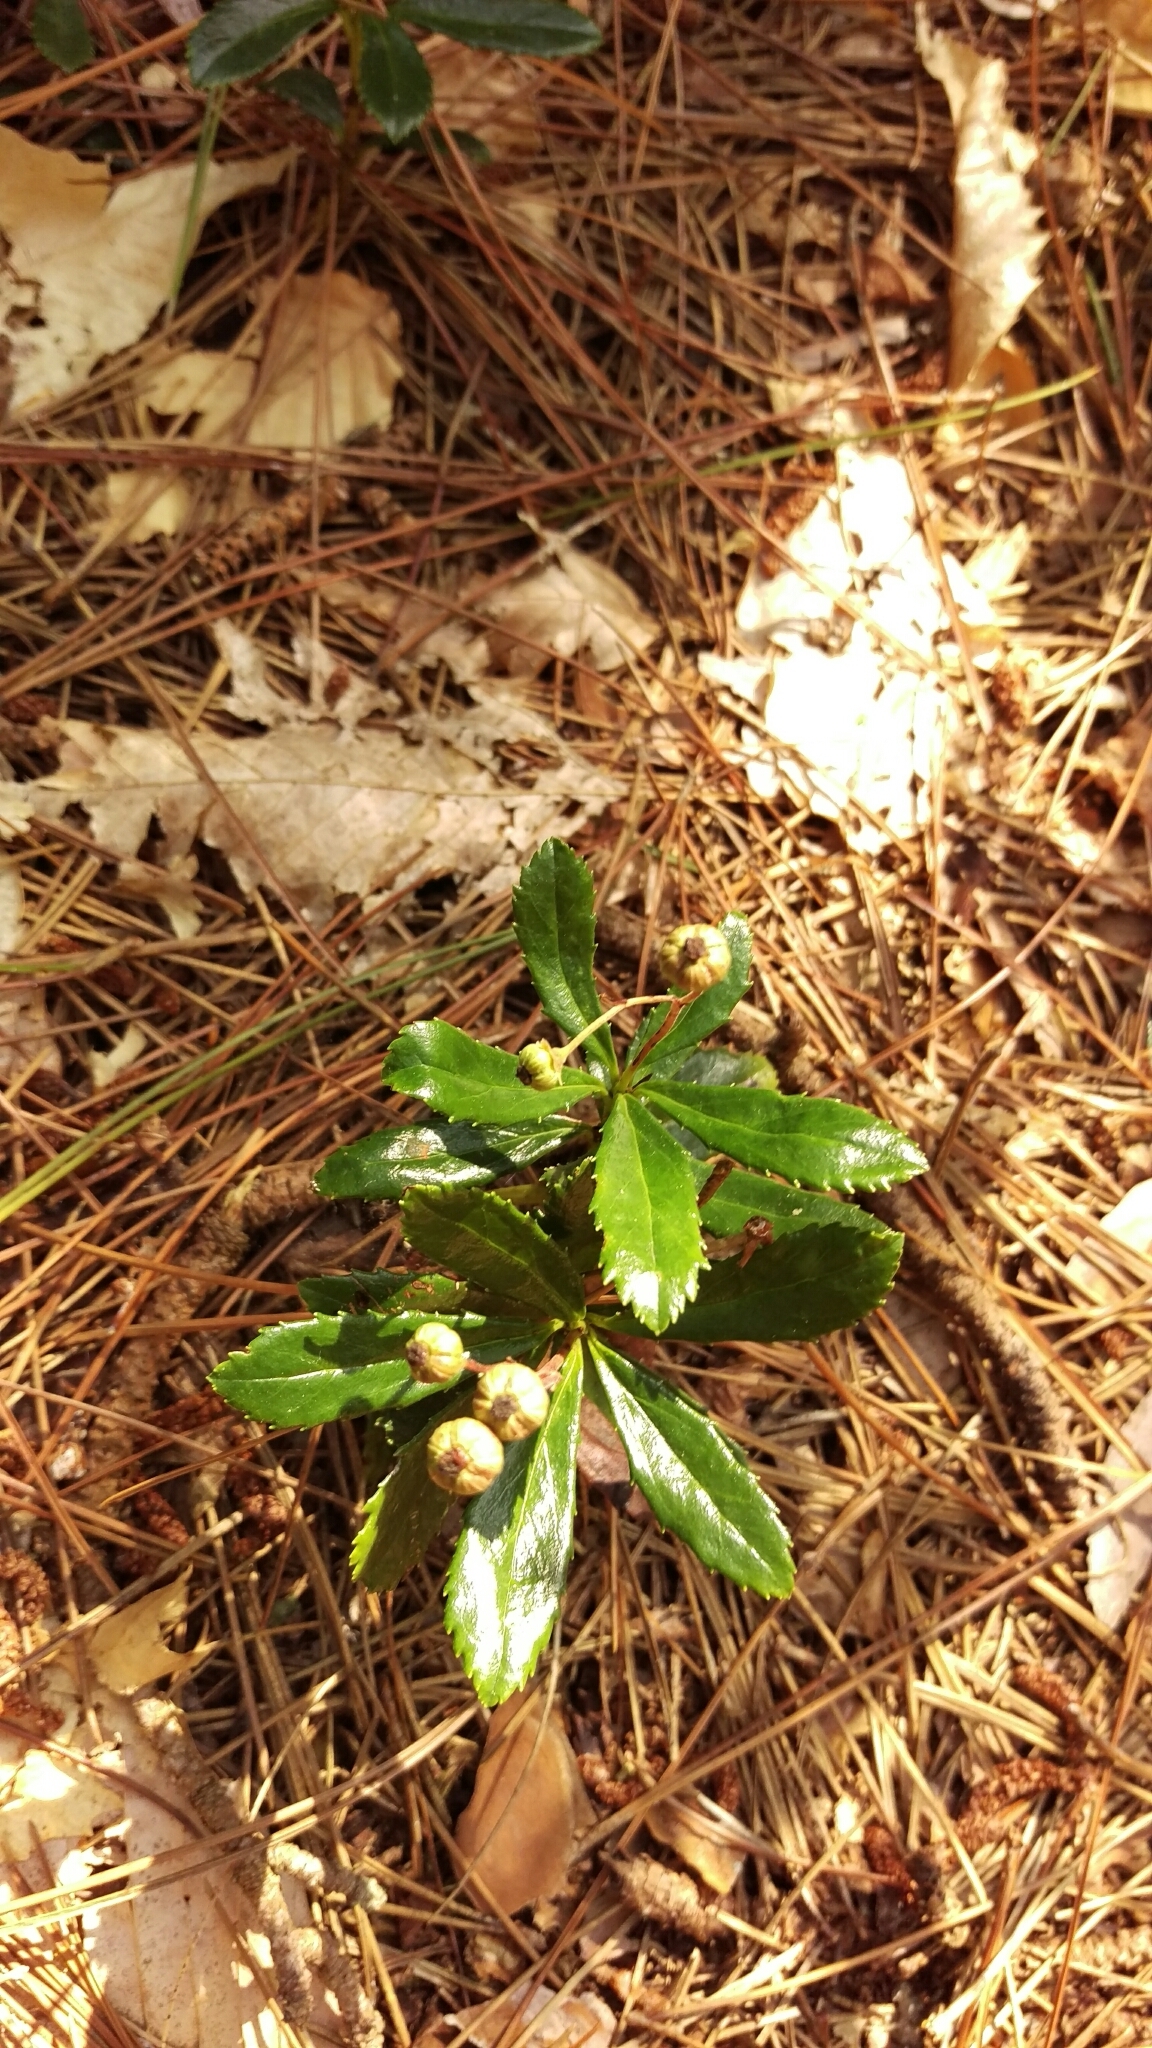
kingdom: Plantae
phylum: Tracheophyta
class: Magnoliopsida
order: Ericales
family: Ericaceae
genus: Chimaphila
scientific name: Chimaphila umbellata
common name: Pipsissewa
